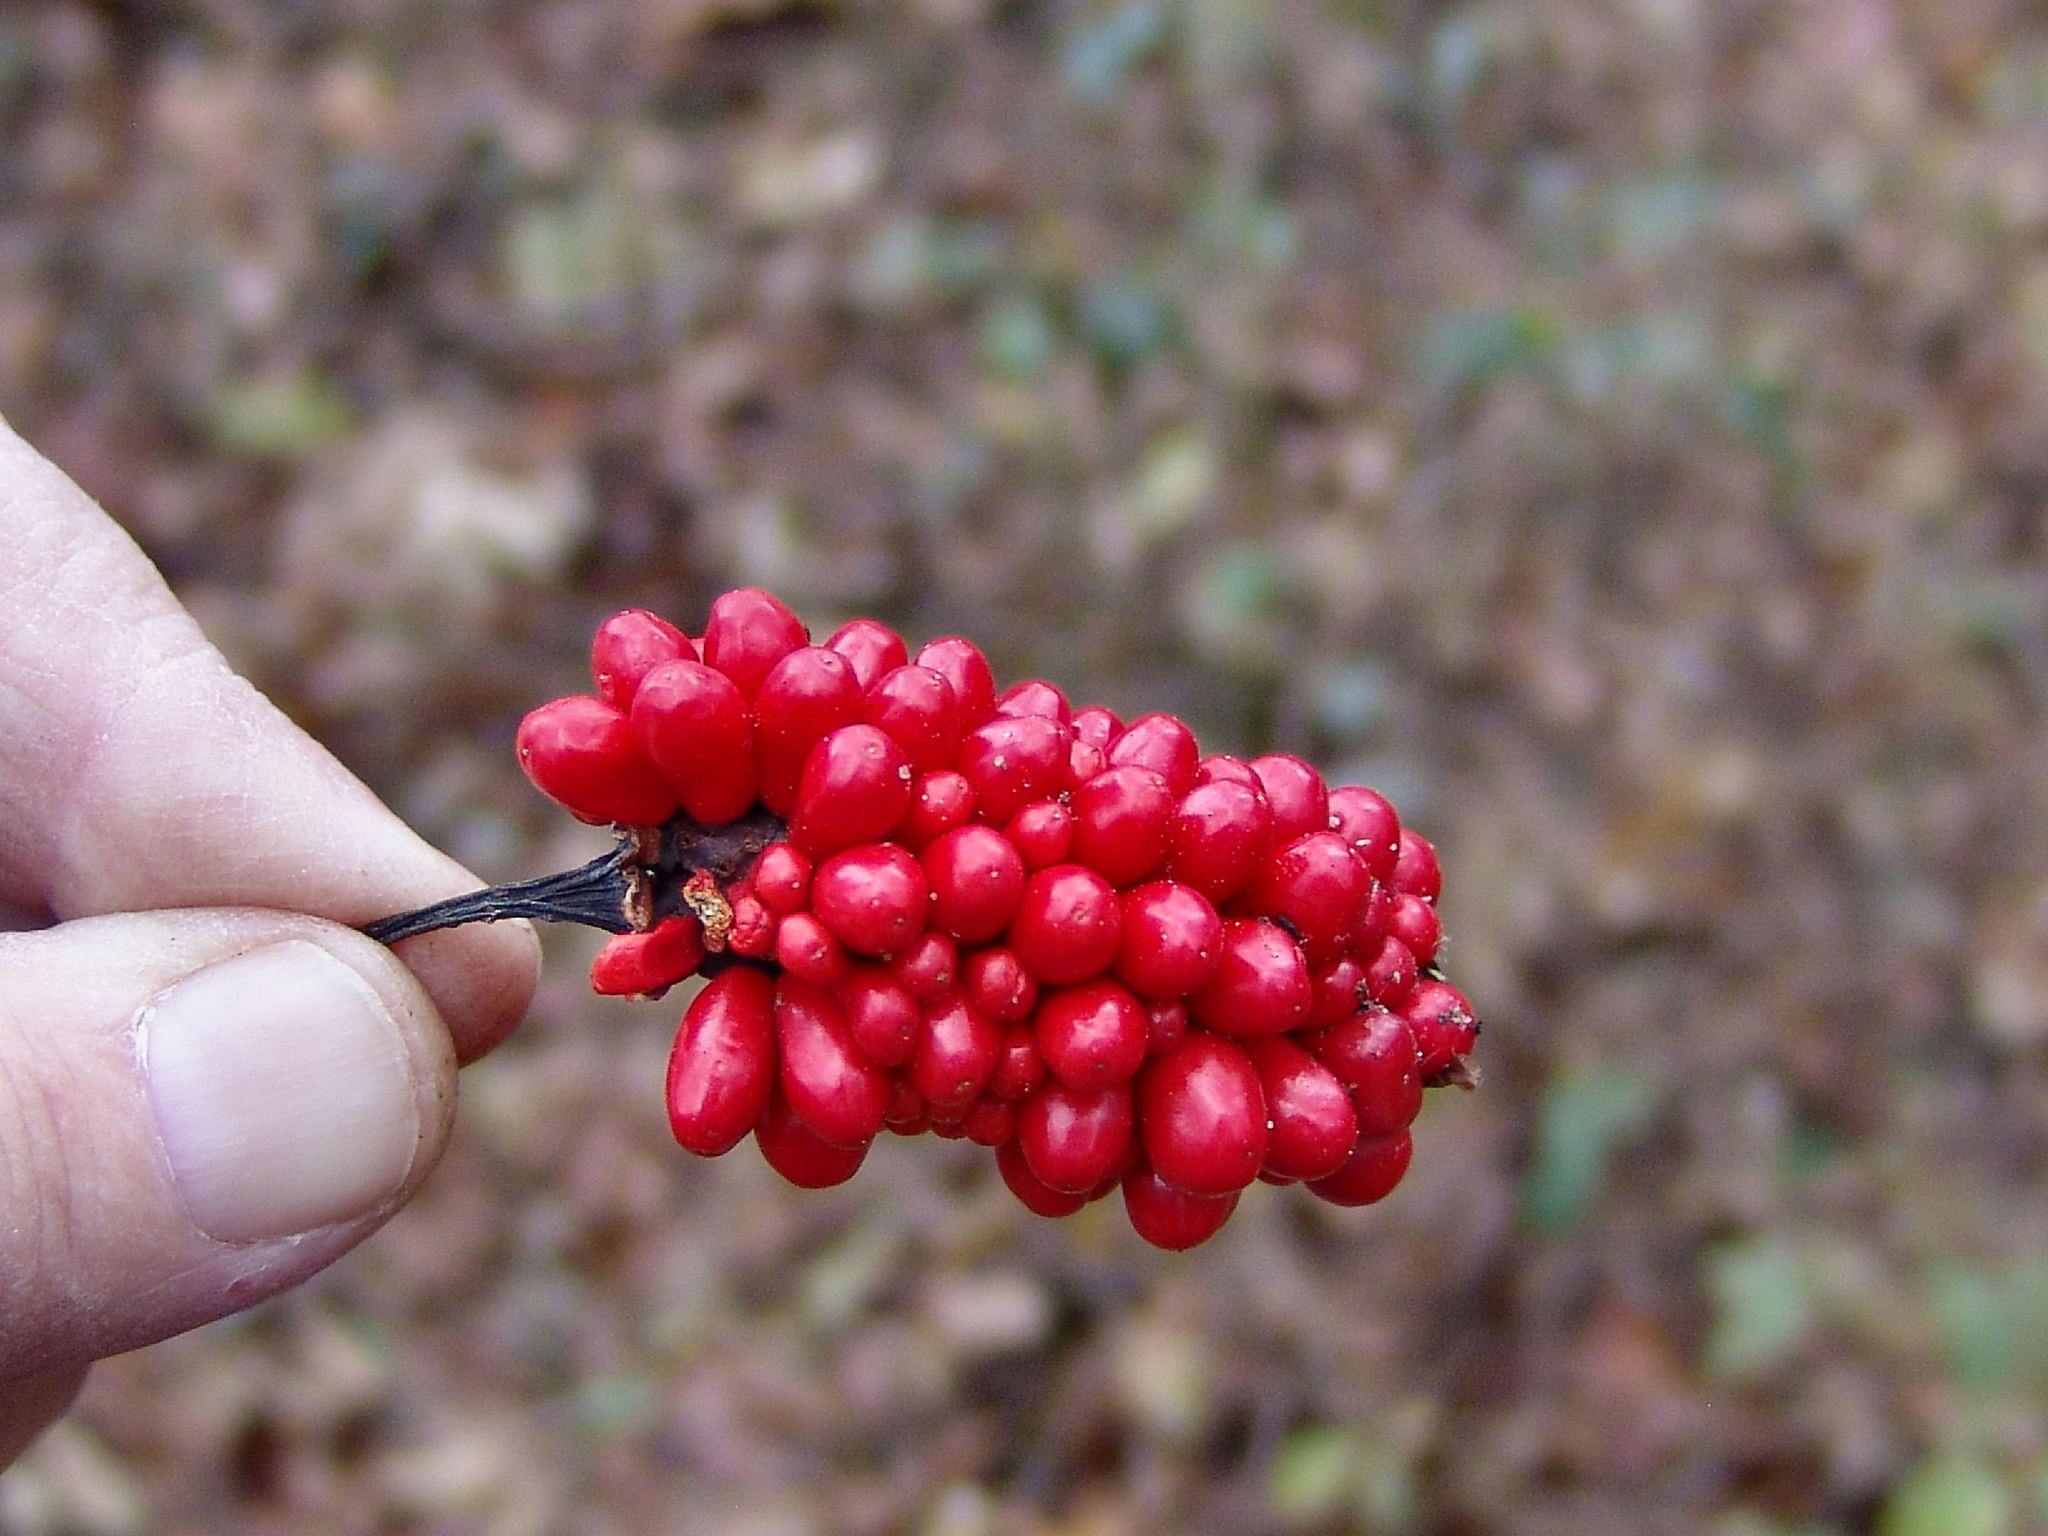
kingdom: Plantae
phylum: Tracheophyta
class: Liliopsida
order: Alismatales
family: Araceae
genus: Arisaema
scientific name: Arisaema dracontium
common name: Dragon-arum
